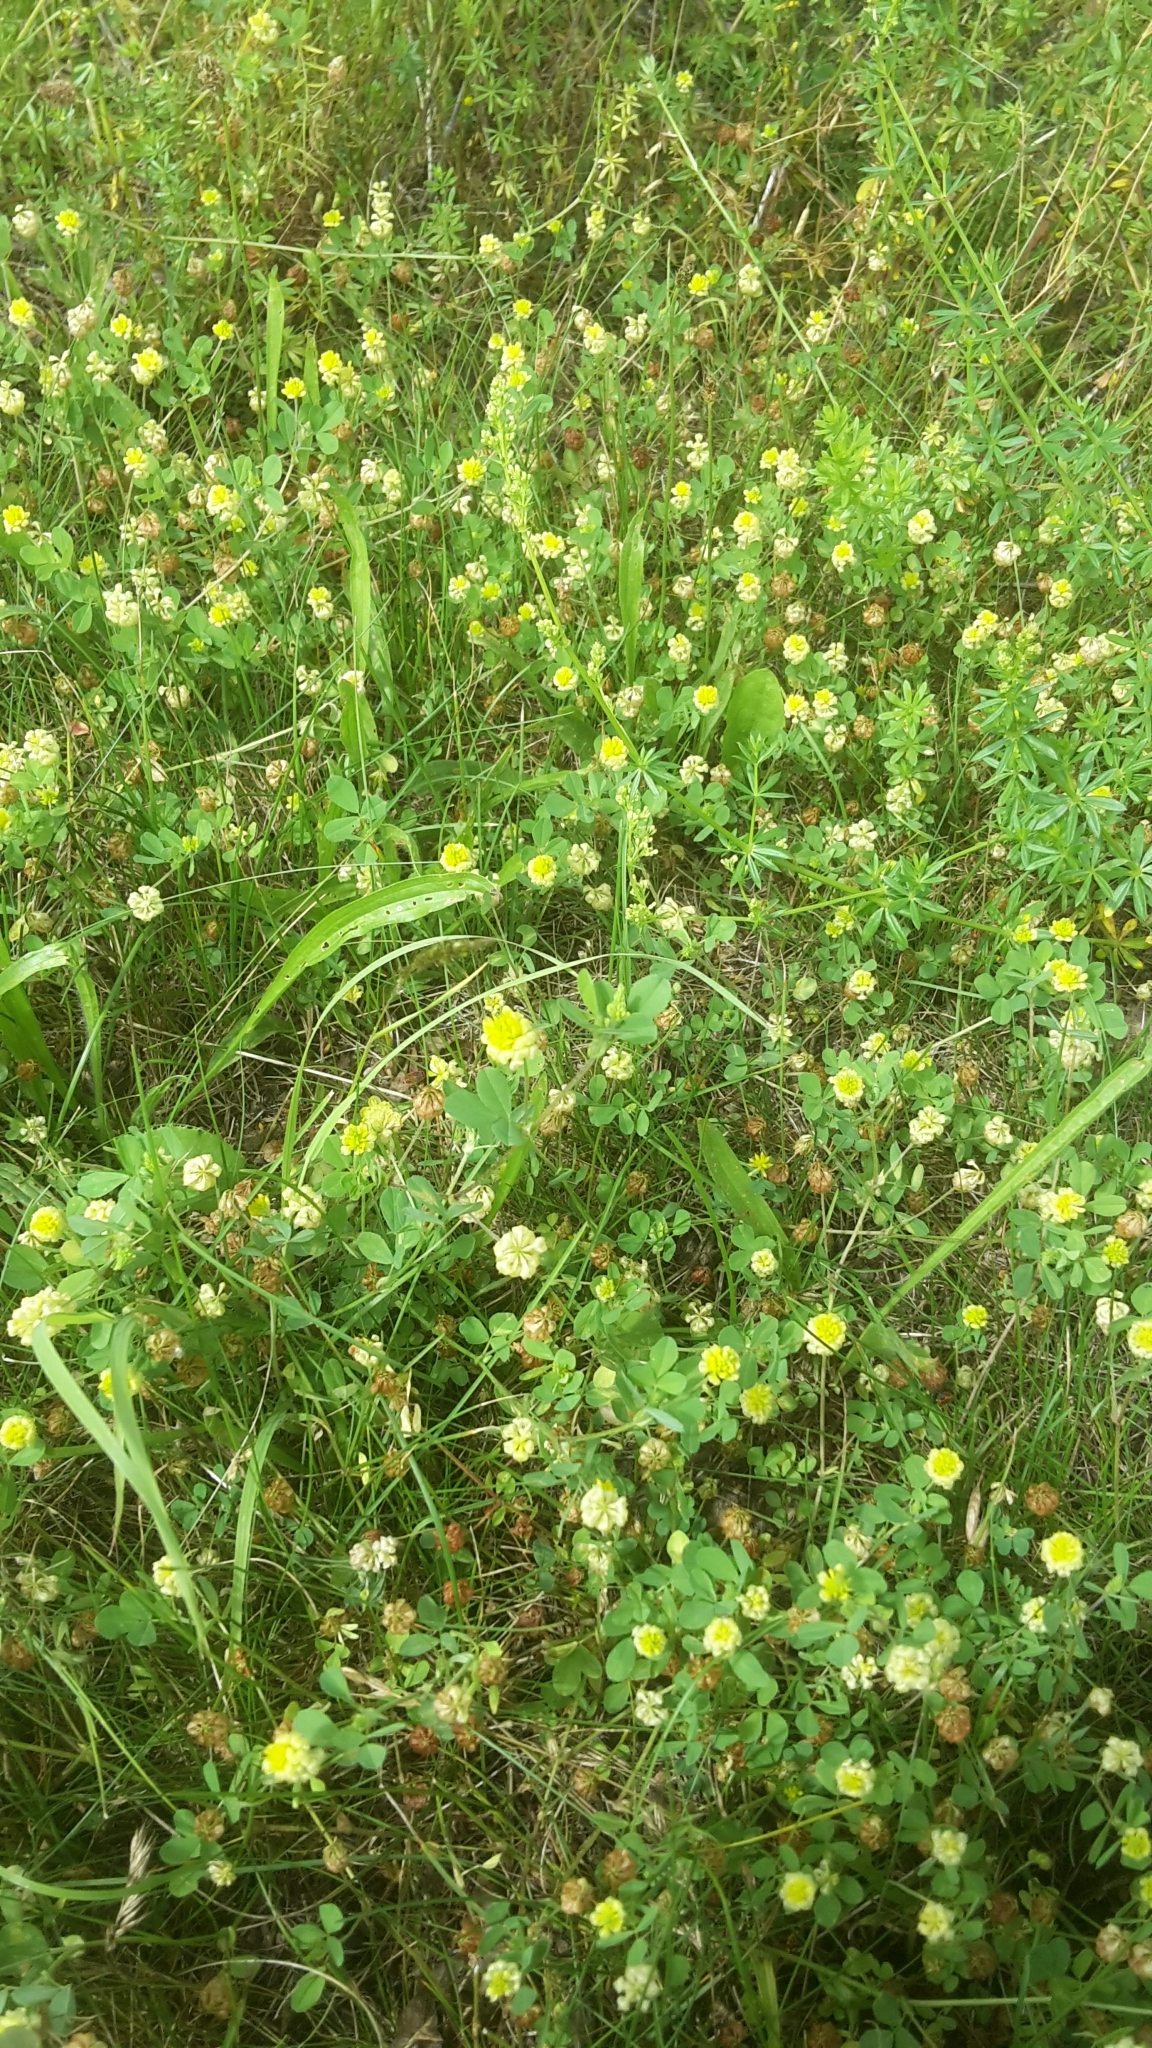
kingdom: Plantae
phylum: Tracheophyta
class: Magnoliopsida
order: Fabales
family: Fabaceae
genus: Trifolium
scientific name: Trifolium campestre
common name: Field clover
